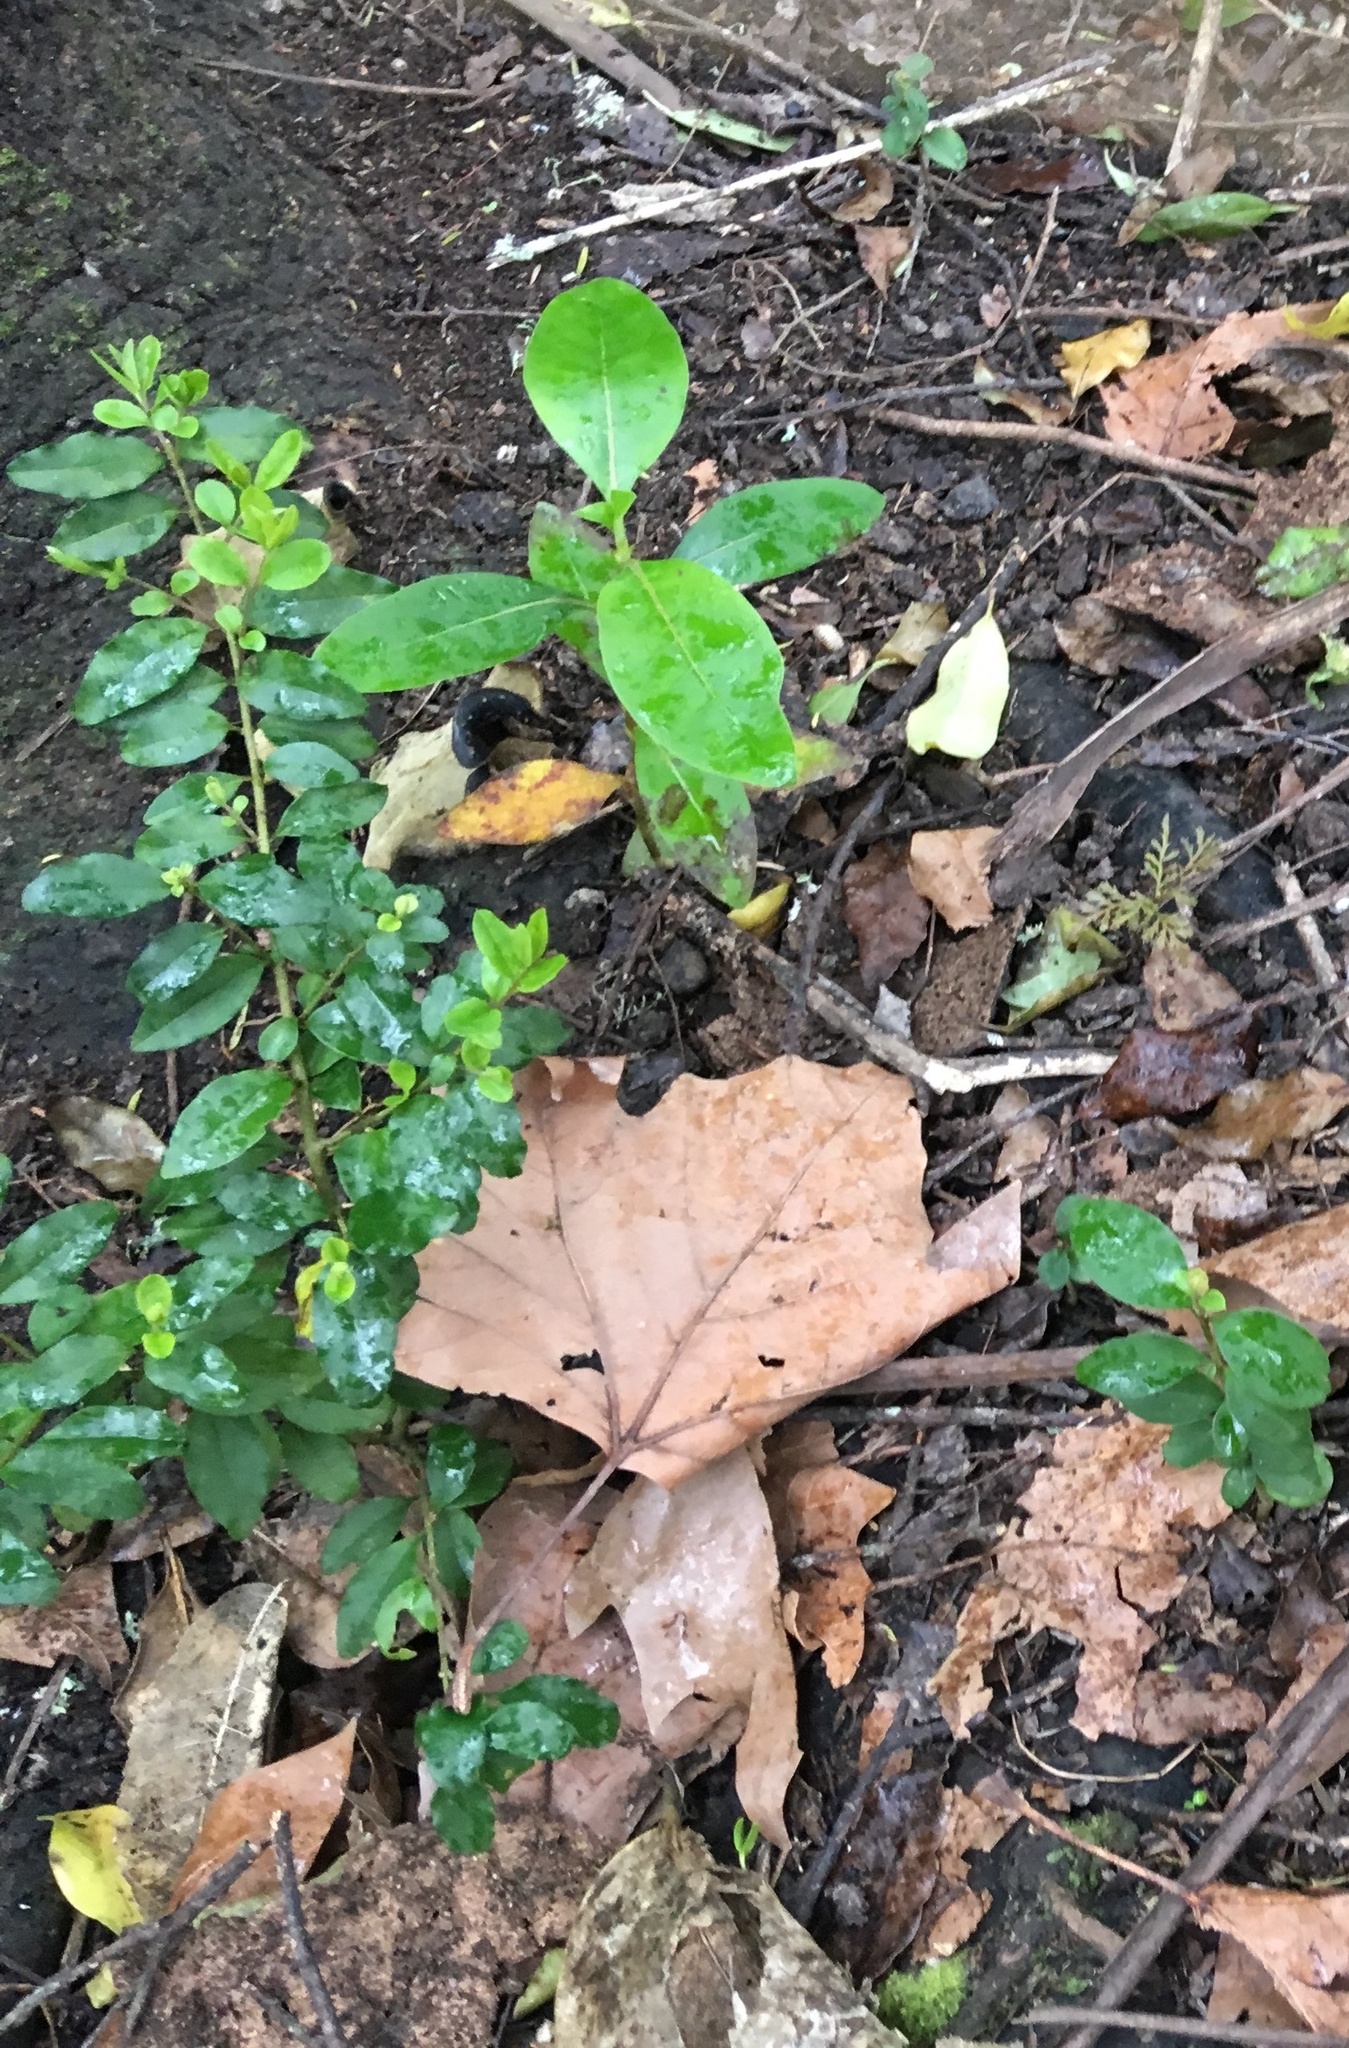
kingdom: Plantae
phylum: Tracheophyta
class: Magnoliopsida
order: Lamiales
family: Oleaceae
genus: Ligustrum
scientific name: Ligustrum sinense
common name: Chinese privet
